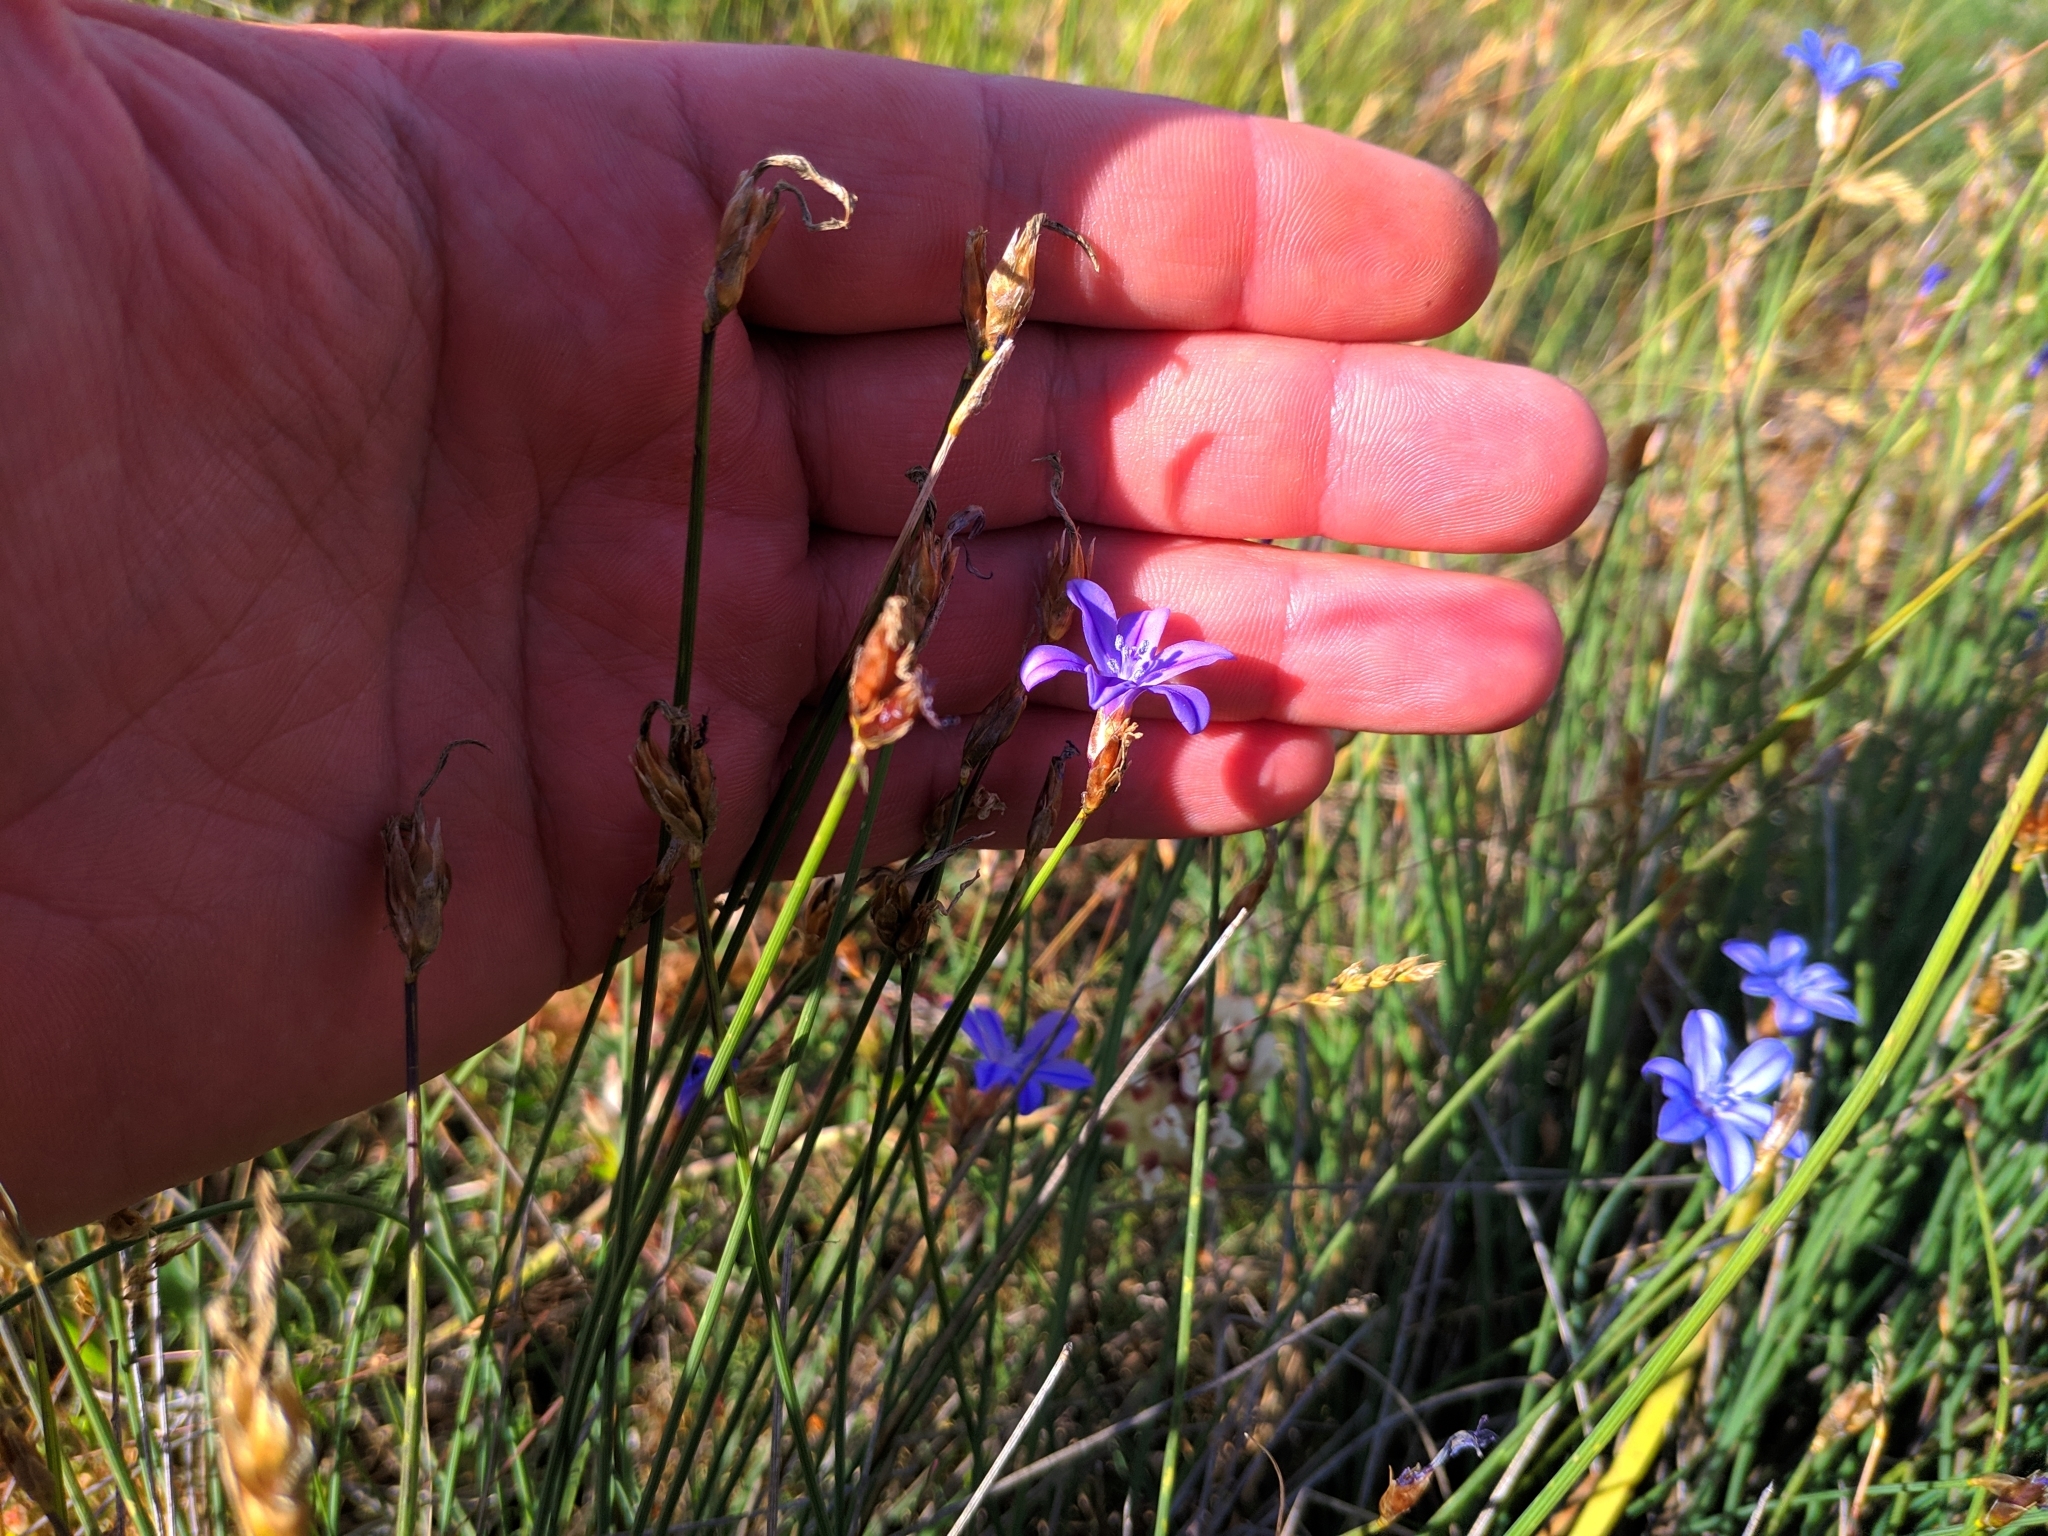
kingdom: Plantae
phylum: Tracheophyta
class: Liliopsida
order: Asparagales
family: Asparagaceae
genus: Aphyllanthes
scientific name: Aphyllanthes monspeliensis
